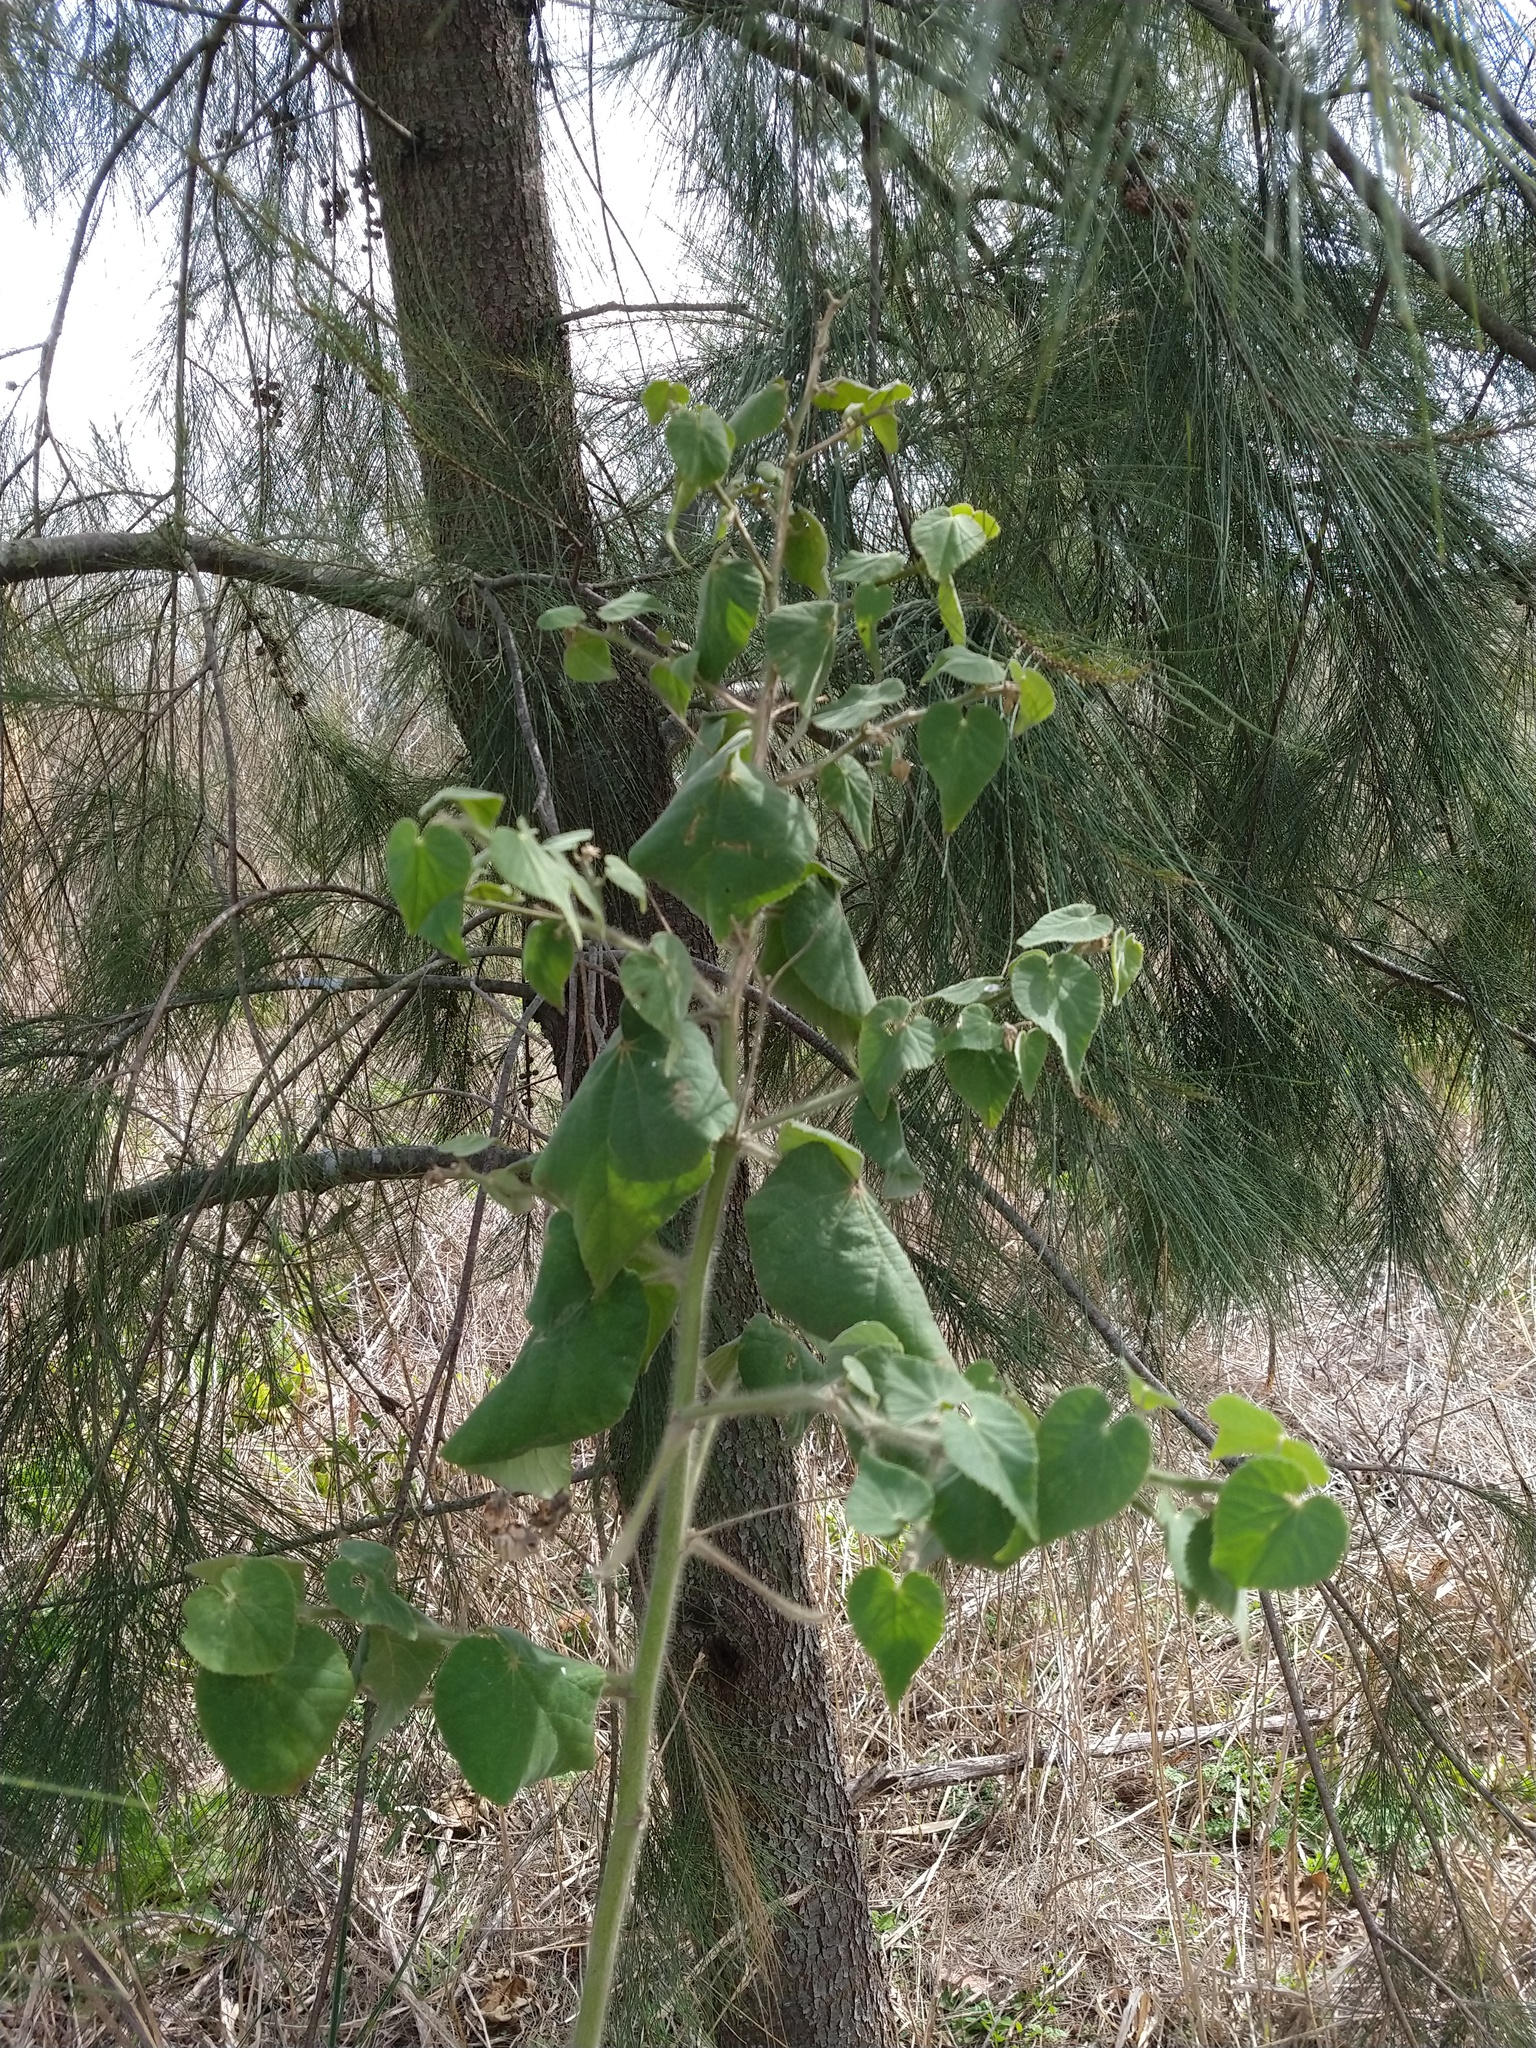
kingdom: Plantae
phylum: Tracheophyta
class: Magnoliopsida
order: Malvales
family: Malvaceae
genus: Abutilon
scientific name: Abutilon grandifolium
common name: Hairy abutilon
